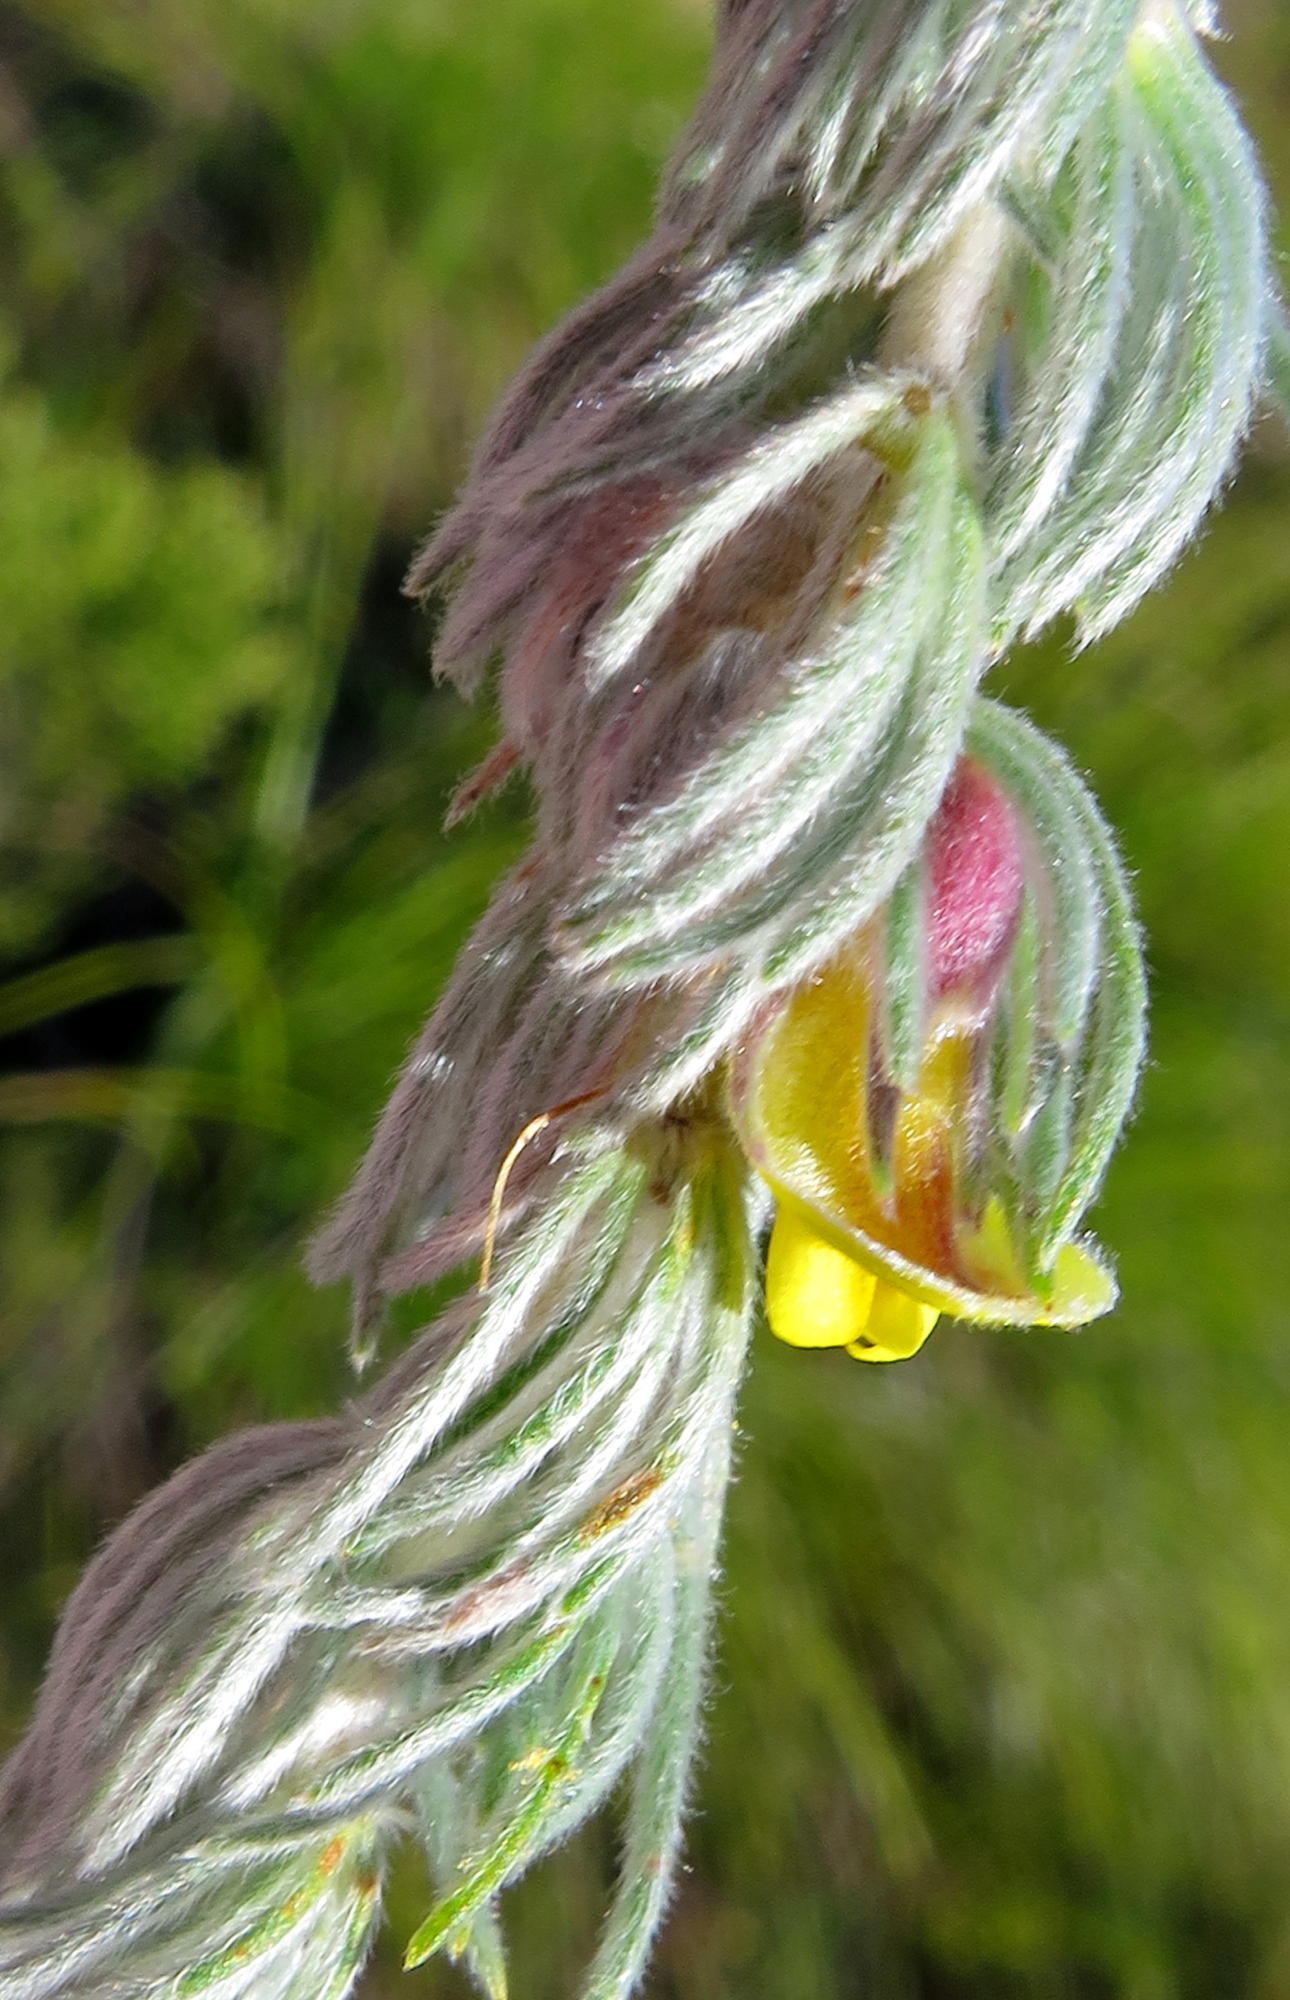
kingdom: Plantae
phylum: Tracheophyta
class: Magnoliopsida
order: Fabales
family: Fabaceae
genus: Aspalathus
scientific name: Aspalathus usnoides
